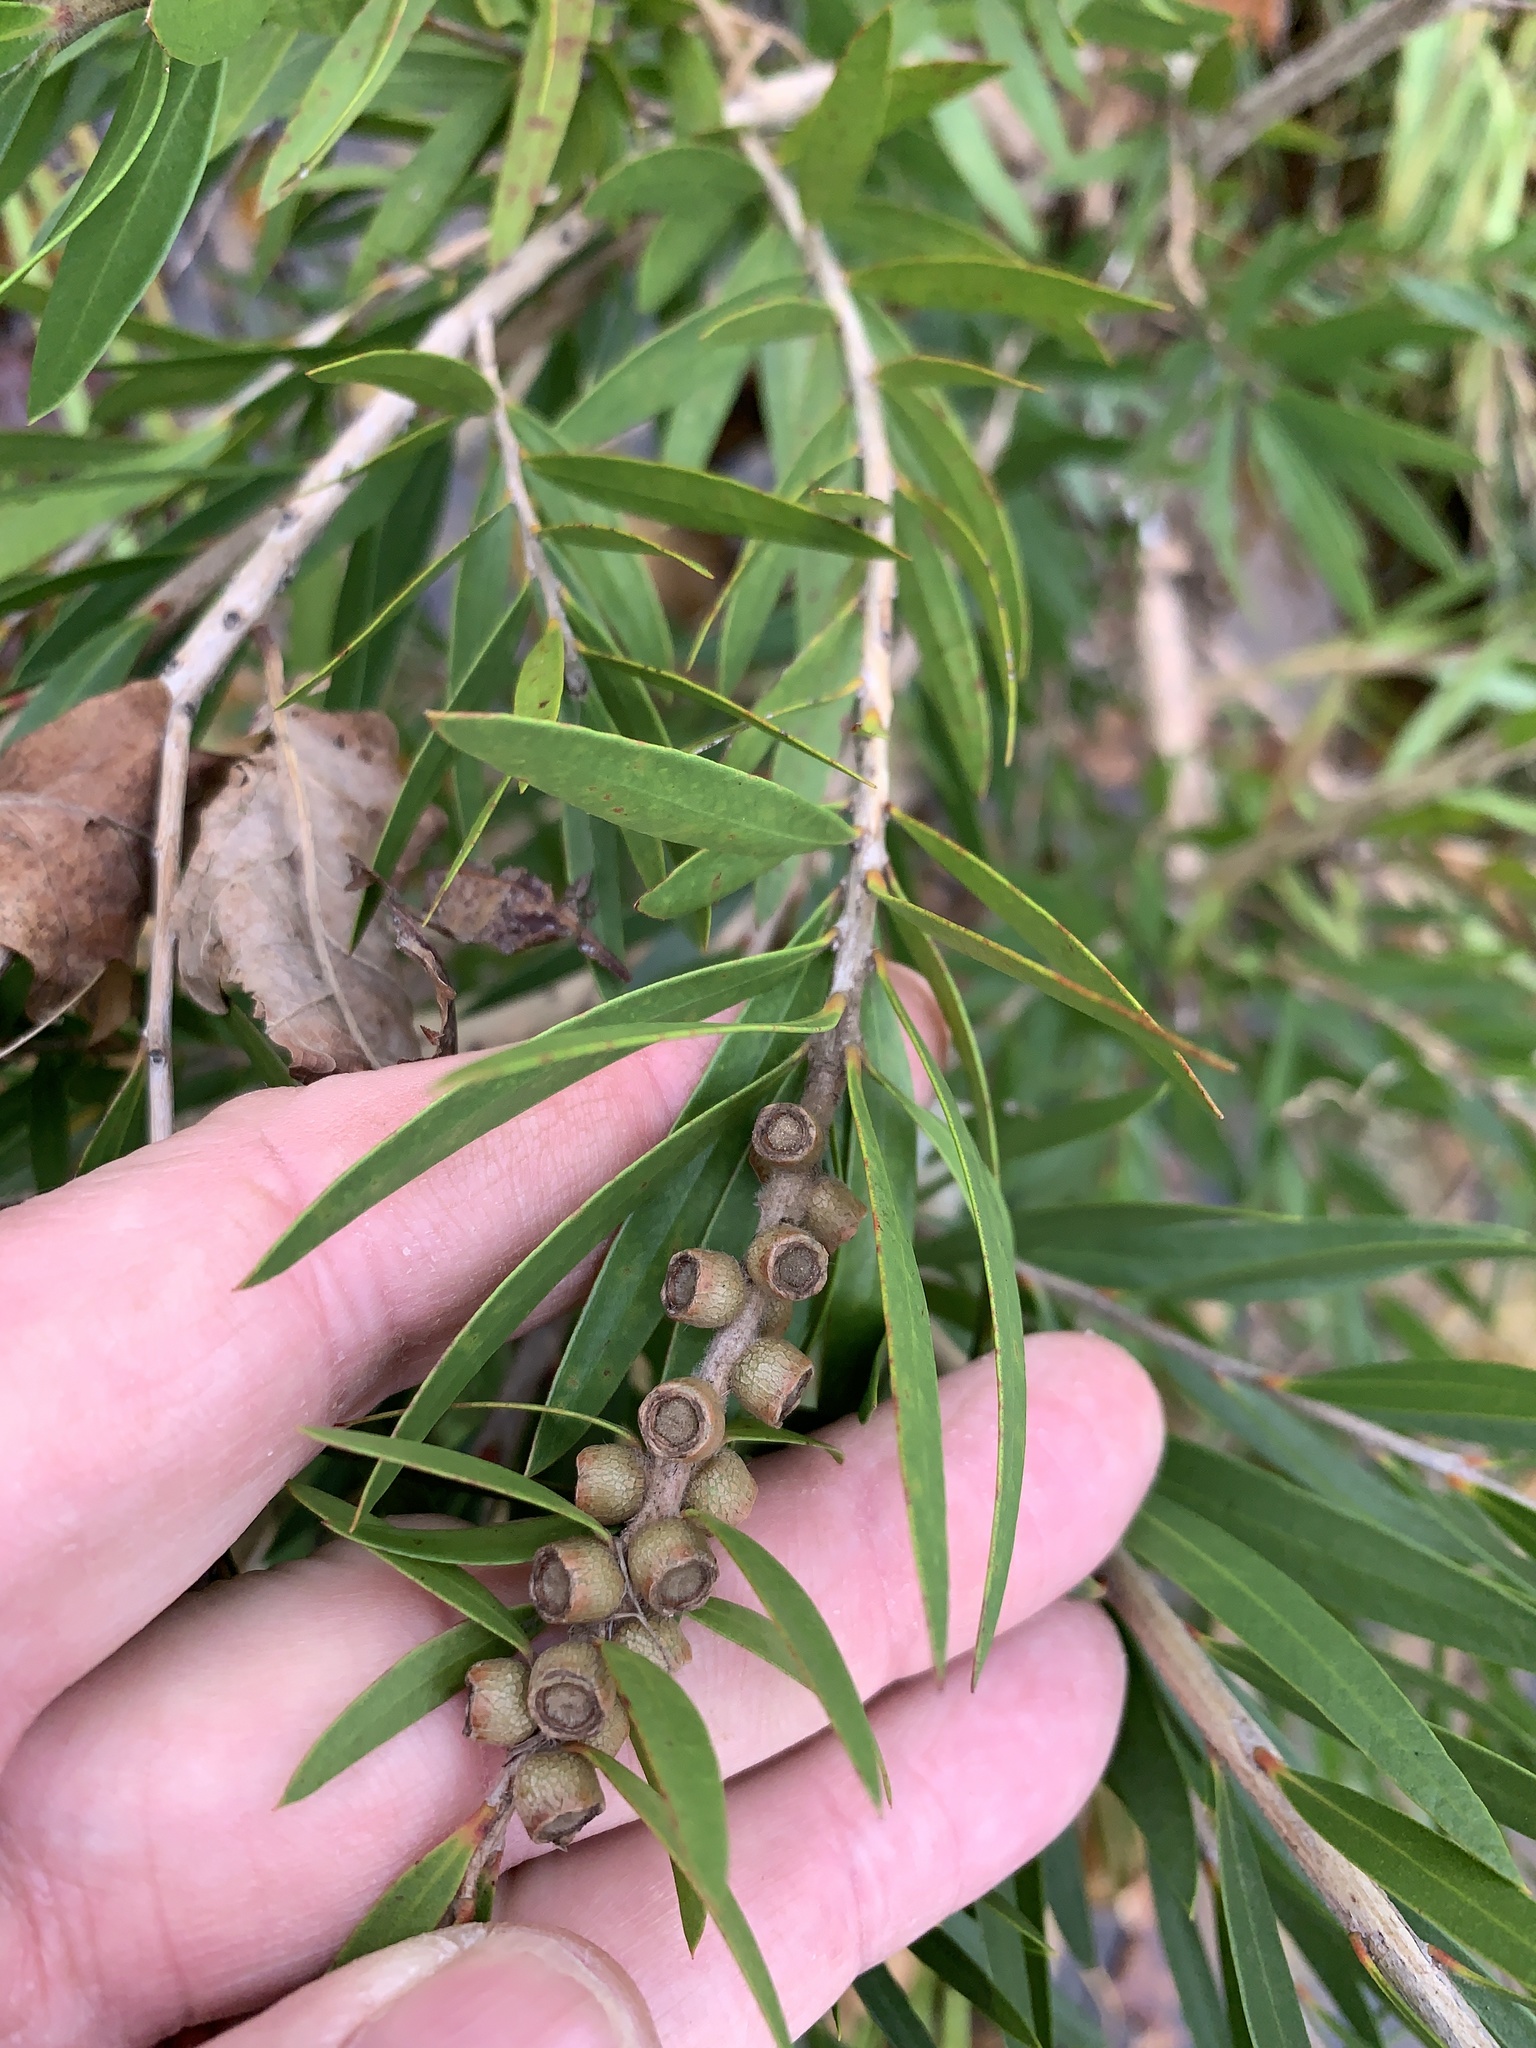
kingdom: Plantae
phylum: Tracheophyta
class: Magnoliopsida
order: Myrtales
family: Myrtaceae
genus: Callistemon
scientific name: Callistemon viminalis
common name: Drooping bottlebrush
